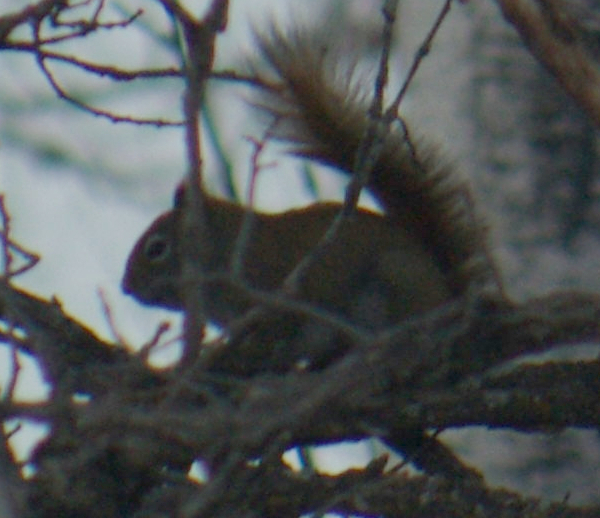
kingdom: Animalia
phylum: Chordata
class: Mammalia
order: Rodentia
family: Sciuridae
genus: Tamiasciurus
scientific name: Tamiasciurus hudsonicus
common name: Red squirrel
